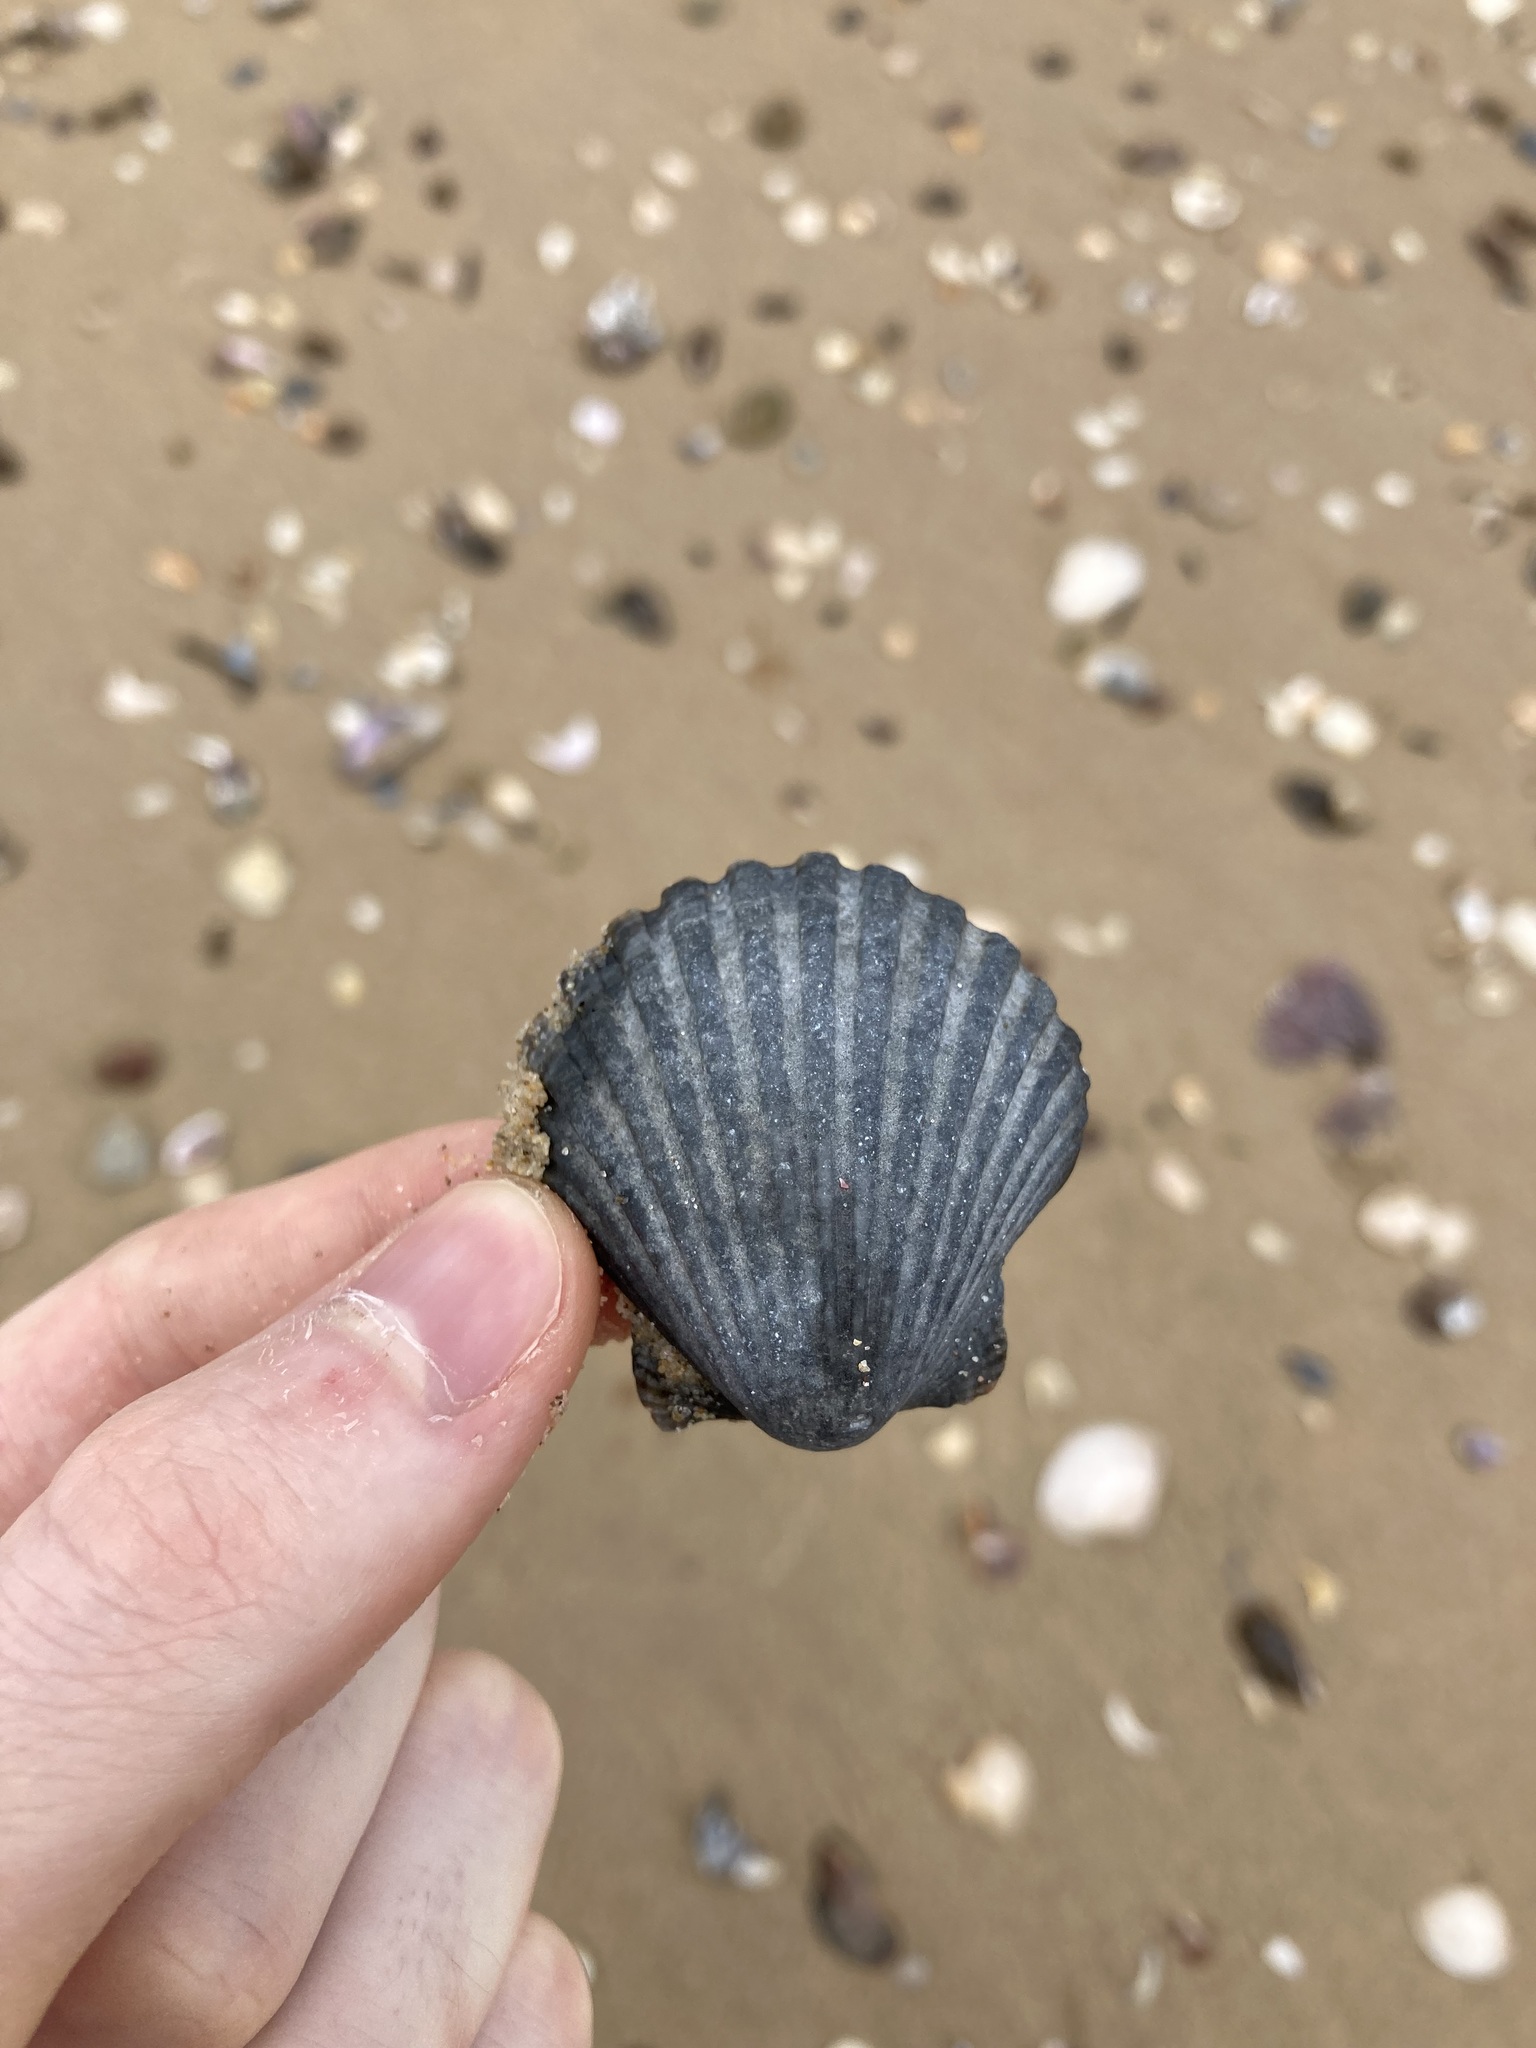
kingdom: Animalia
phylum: Mollusca
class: Bivalvia
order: Pectinida
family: Pectinidae
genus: Pecten
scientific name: Pecten fumatus
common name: Australian scallop
